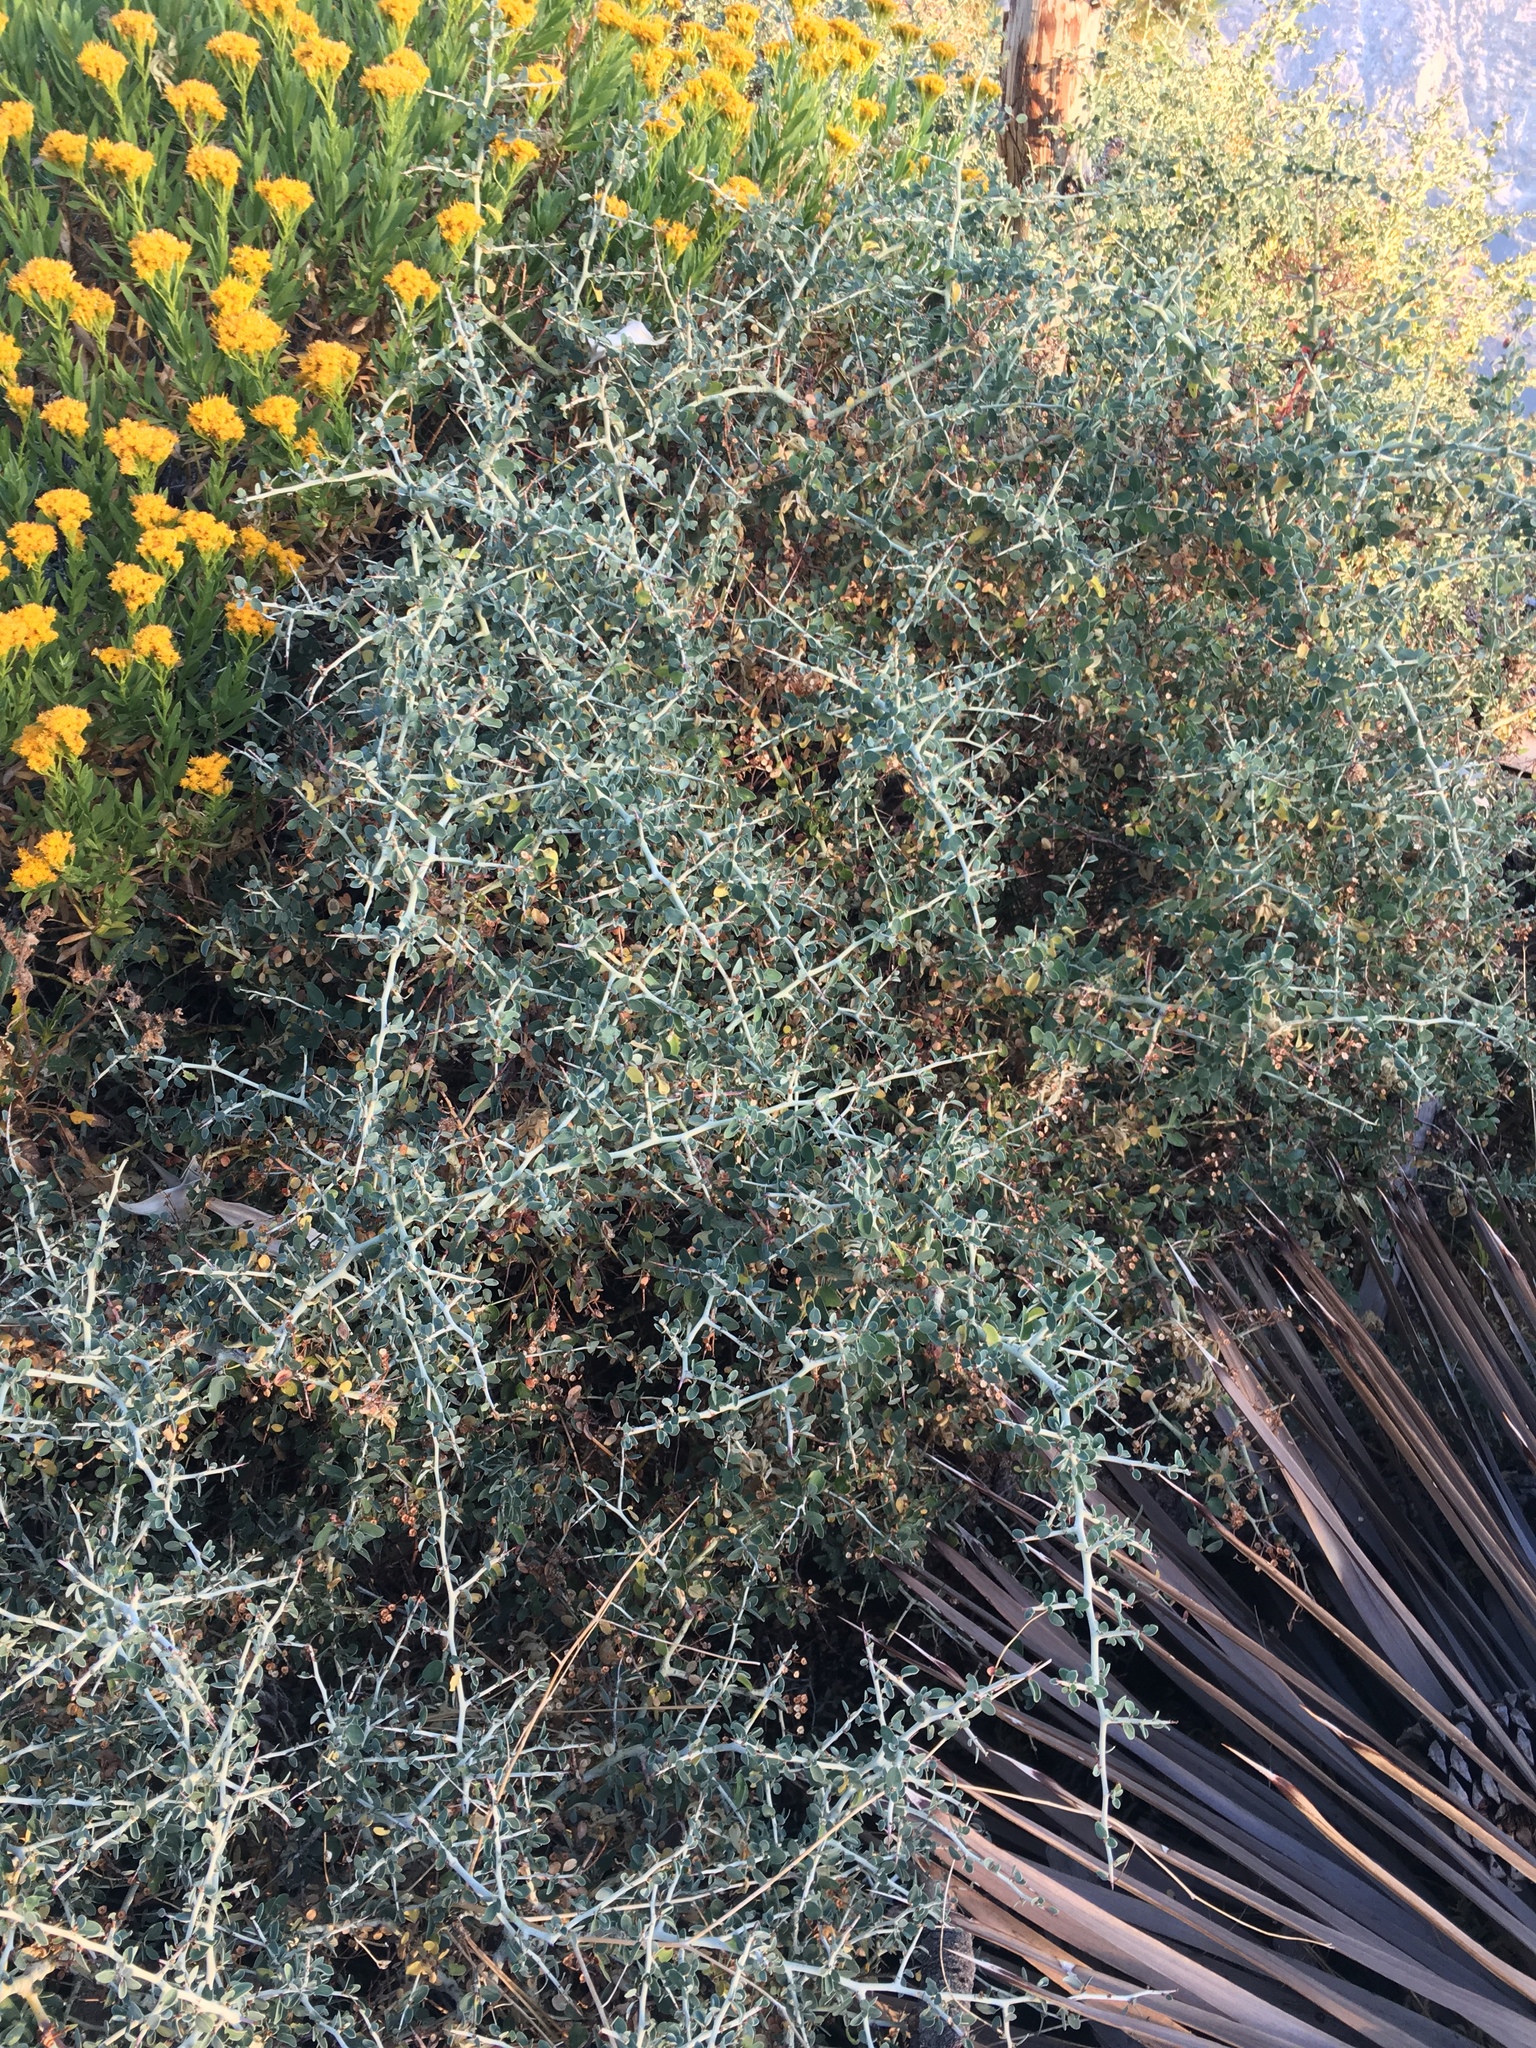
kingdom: Plantae
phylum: Tracheophyta
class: Magnoliopsida
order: Rosales
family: Rhamnaceae
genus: Ceanothus
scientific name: Ceanothus cordulatus
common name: Mountain whitethorn
